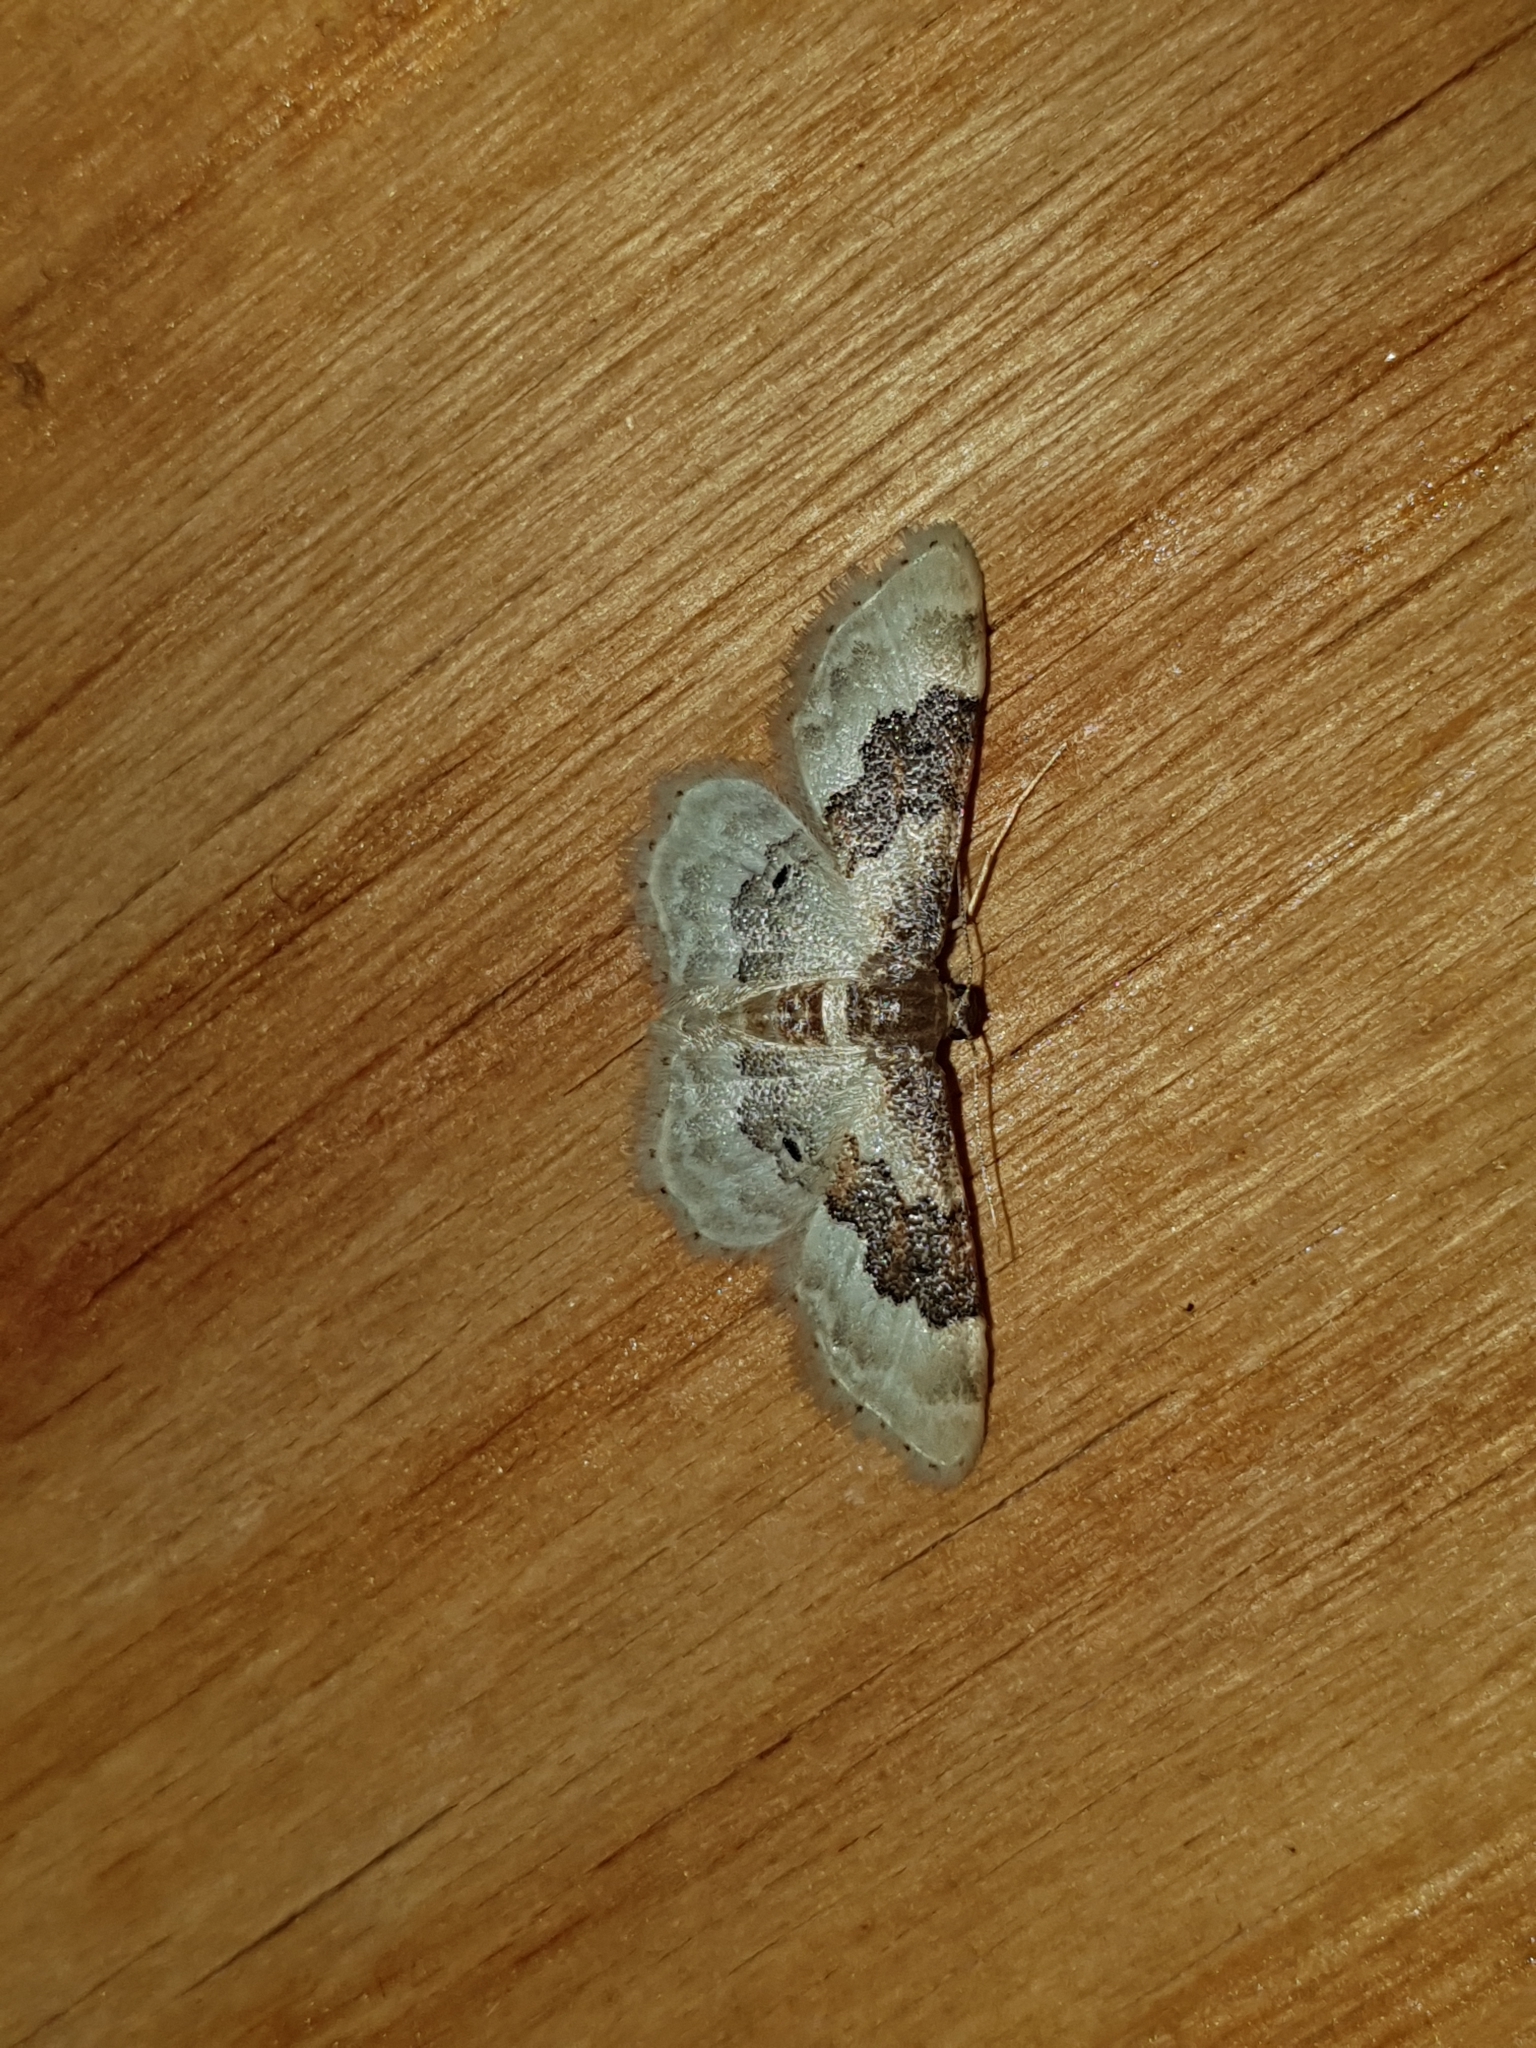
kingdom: Animalia
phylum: Arthropoda
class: Insecta
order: Lepidoptera
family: Geometridae
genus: Idaea
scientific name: Idaea rusticata
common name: Least carpet
